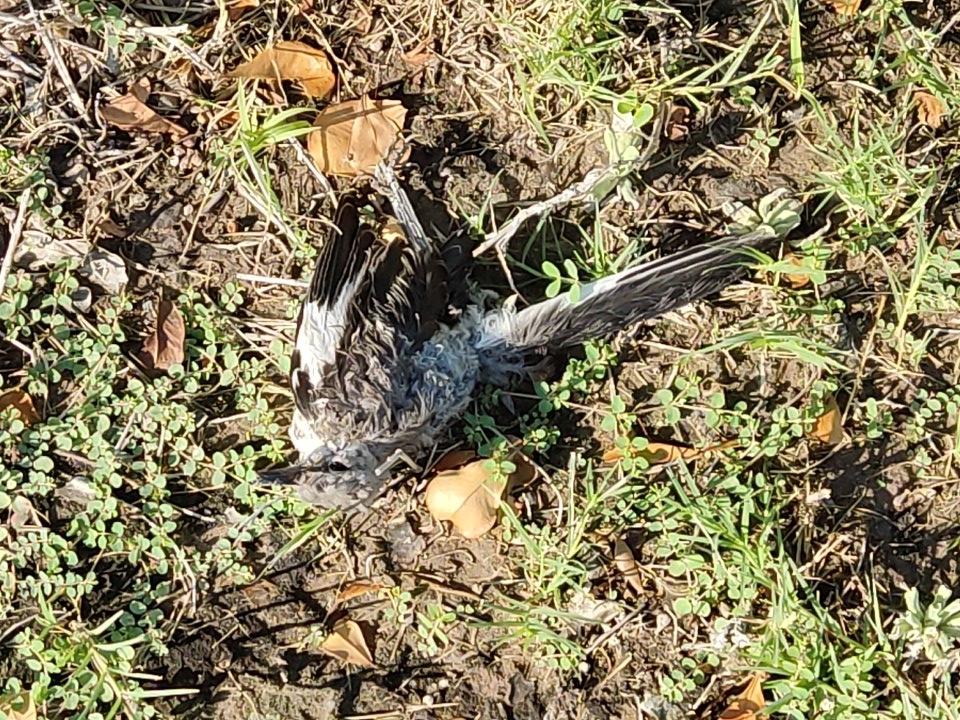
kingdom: Animalia
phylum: Chordata
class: Aves
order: Passeriformes
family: Mimidae
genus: Mimus
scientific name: Mimus polyglottos
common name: Northern mockingbird
